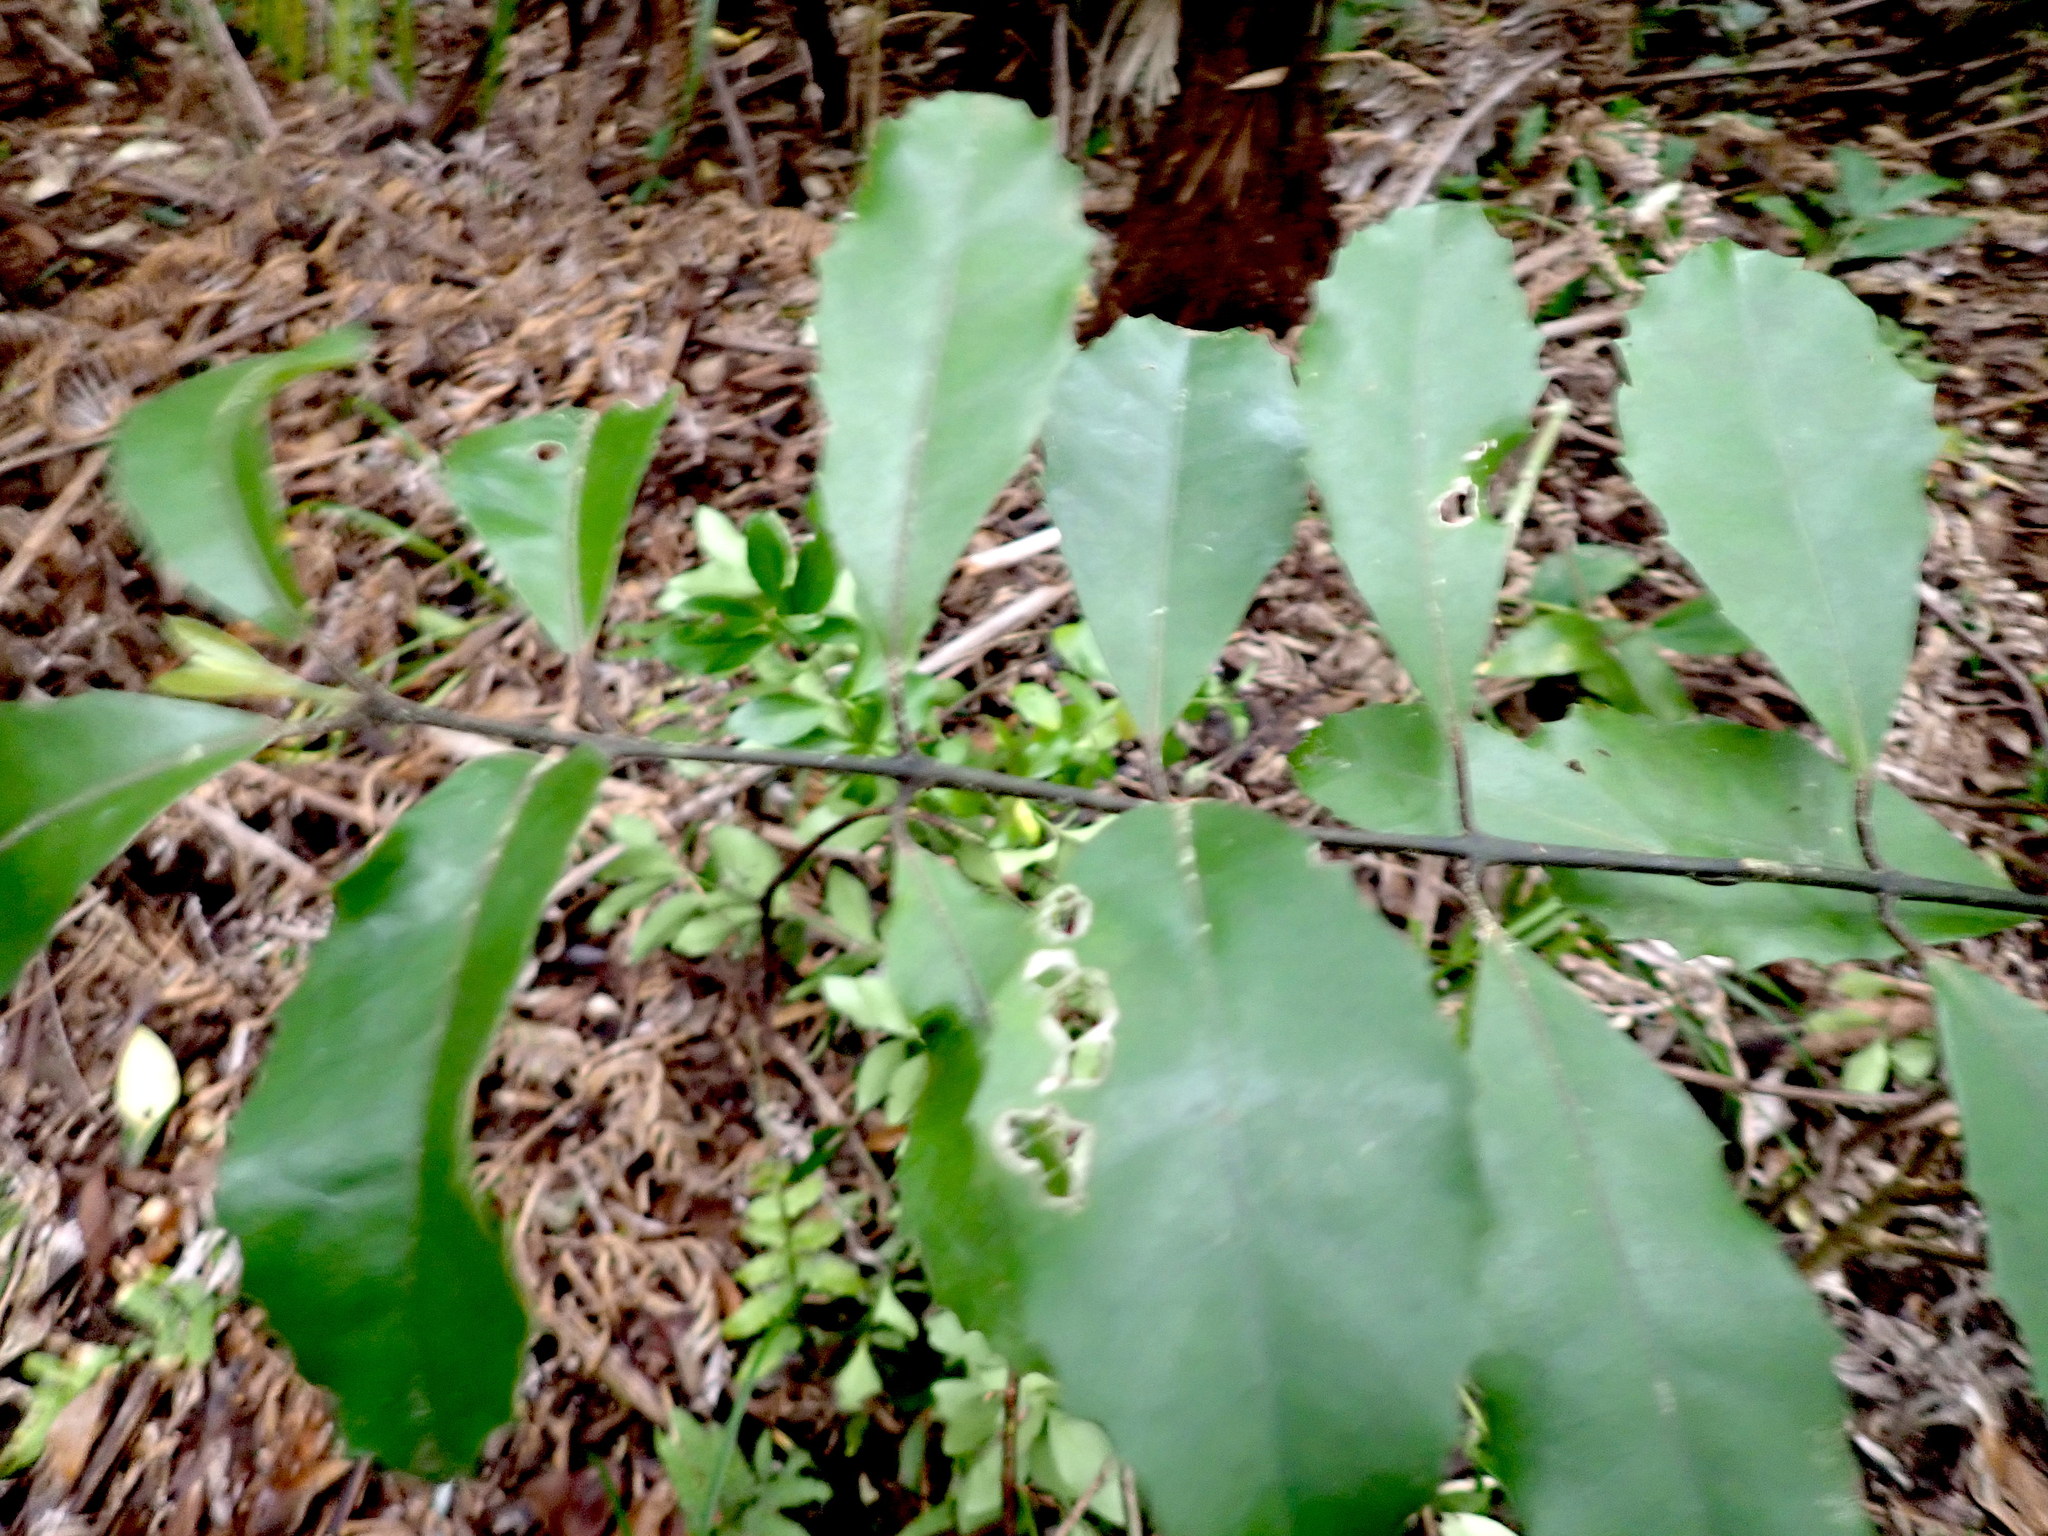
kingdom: Plantae
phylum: Tracheophyta
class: Magnoliopsida
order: Laurales
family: Monimiaceae
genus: Hedycarya
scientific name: Hedycarya arborea
